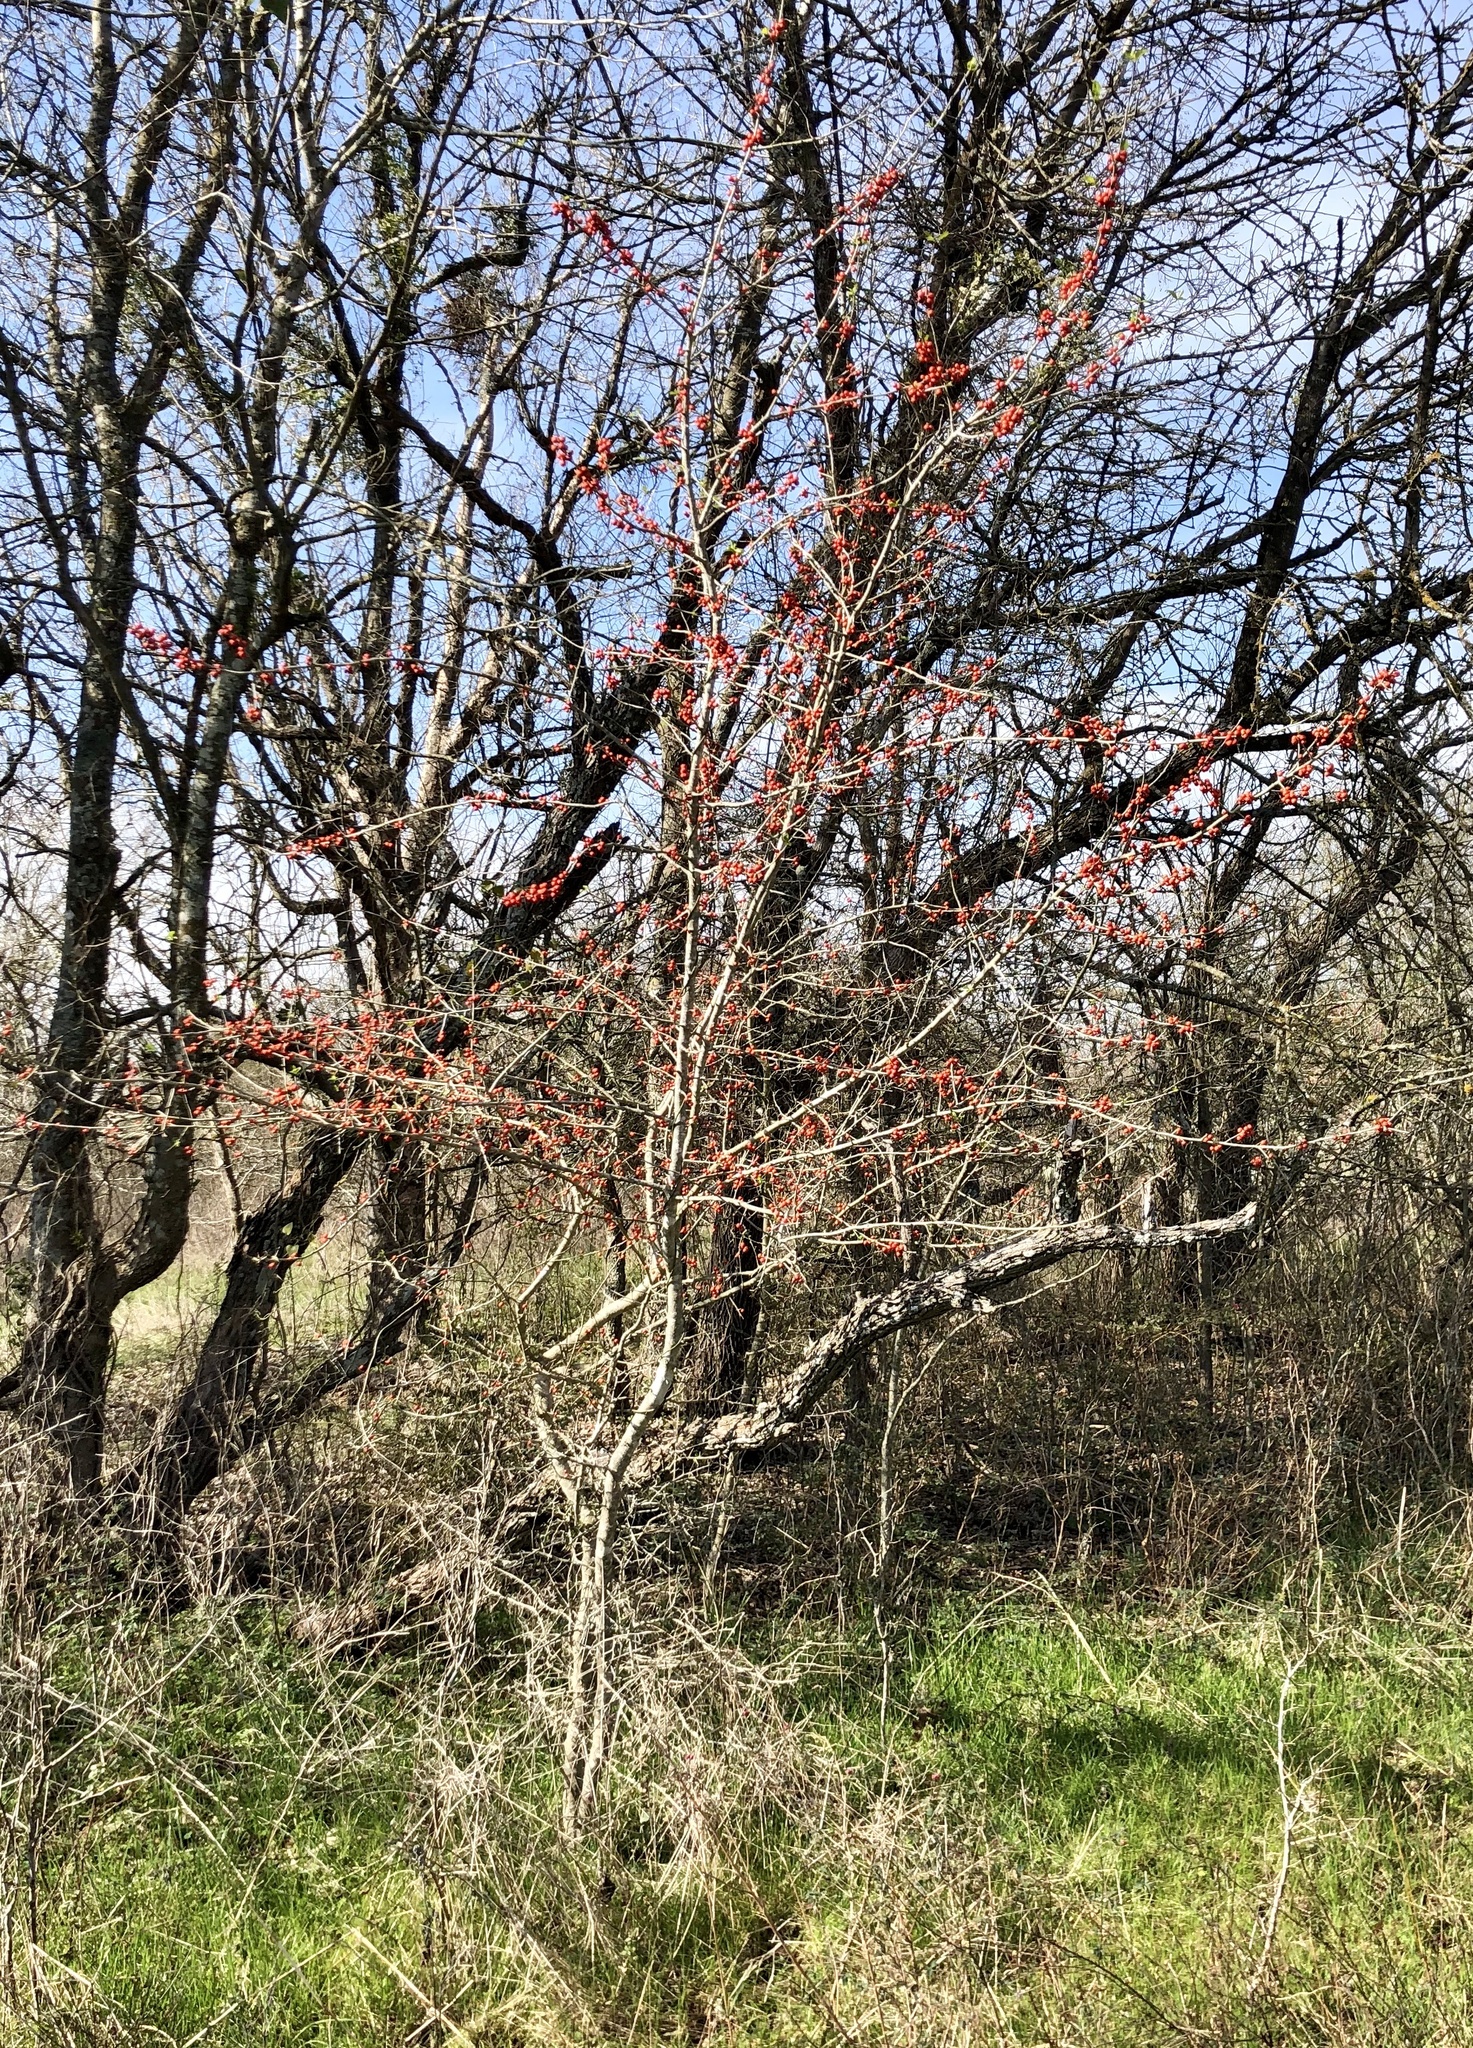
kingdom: Plantae
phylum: Tracheophyta
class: Magnoliopsida
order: Aquifoliales
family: Aquifoliaceae
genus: Ilex
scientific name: Ilex decidua
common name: Possum-haw
